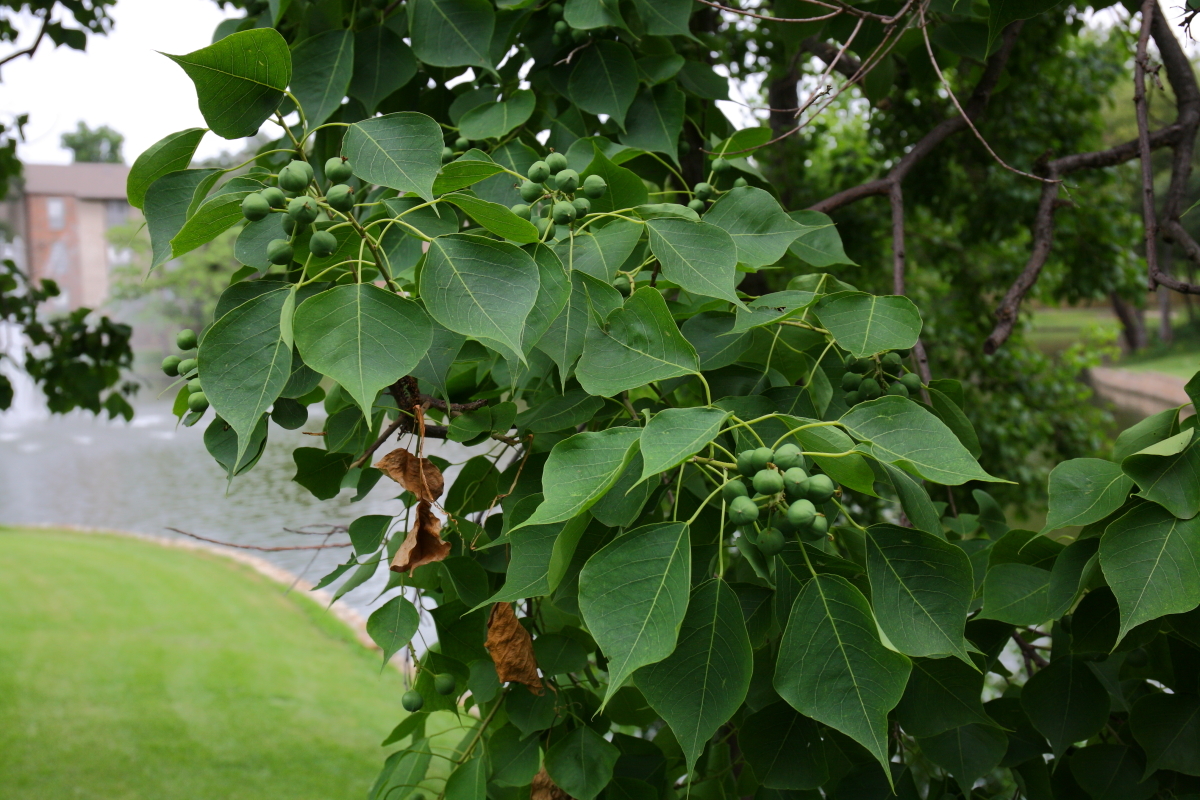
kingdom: Plantae
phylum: Tracheophyta
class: Magnoliopsida
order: Malpighiales
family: Euphorbiaceae
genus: Triadica
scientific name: Triadica sebifera
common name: Chinese tallow
